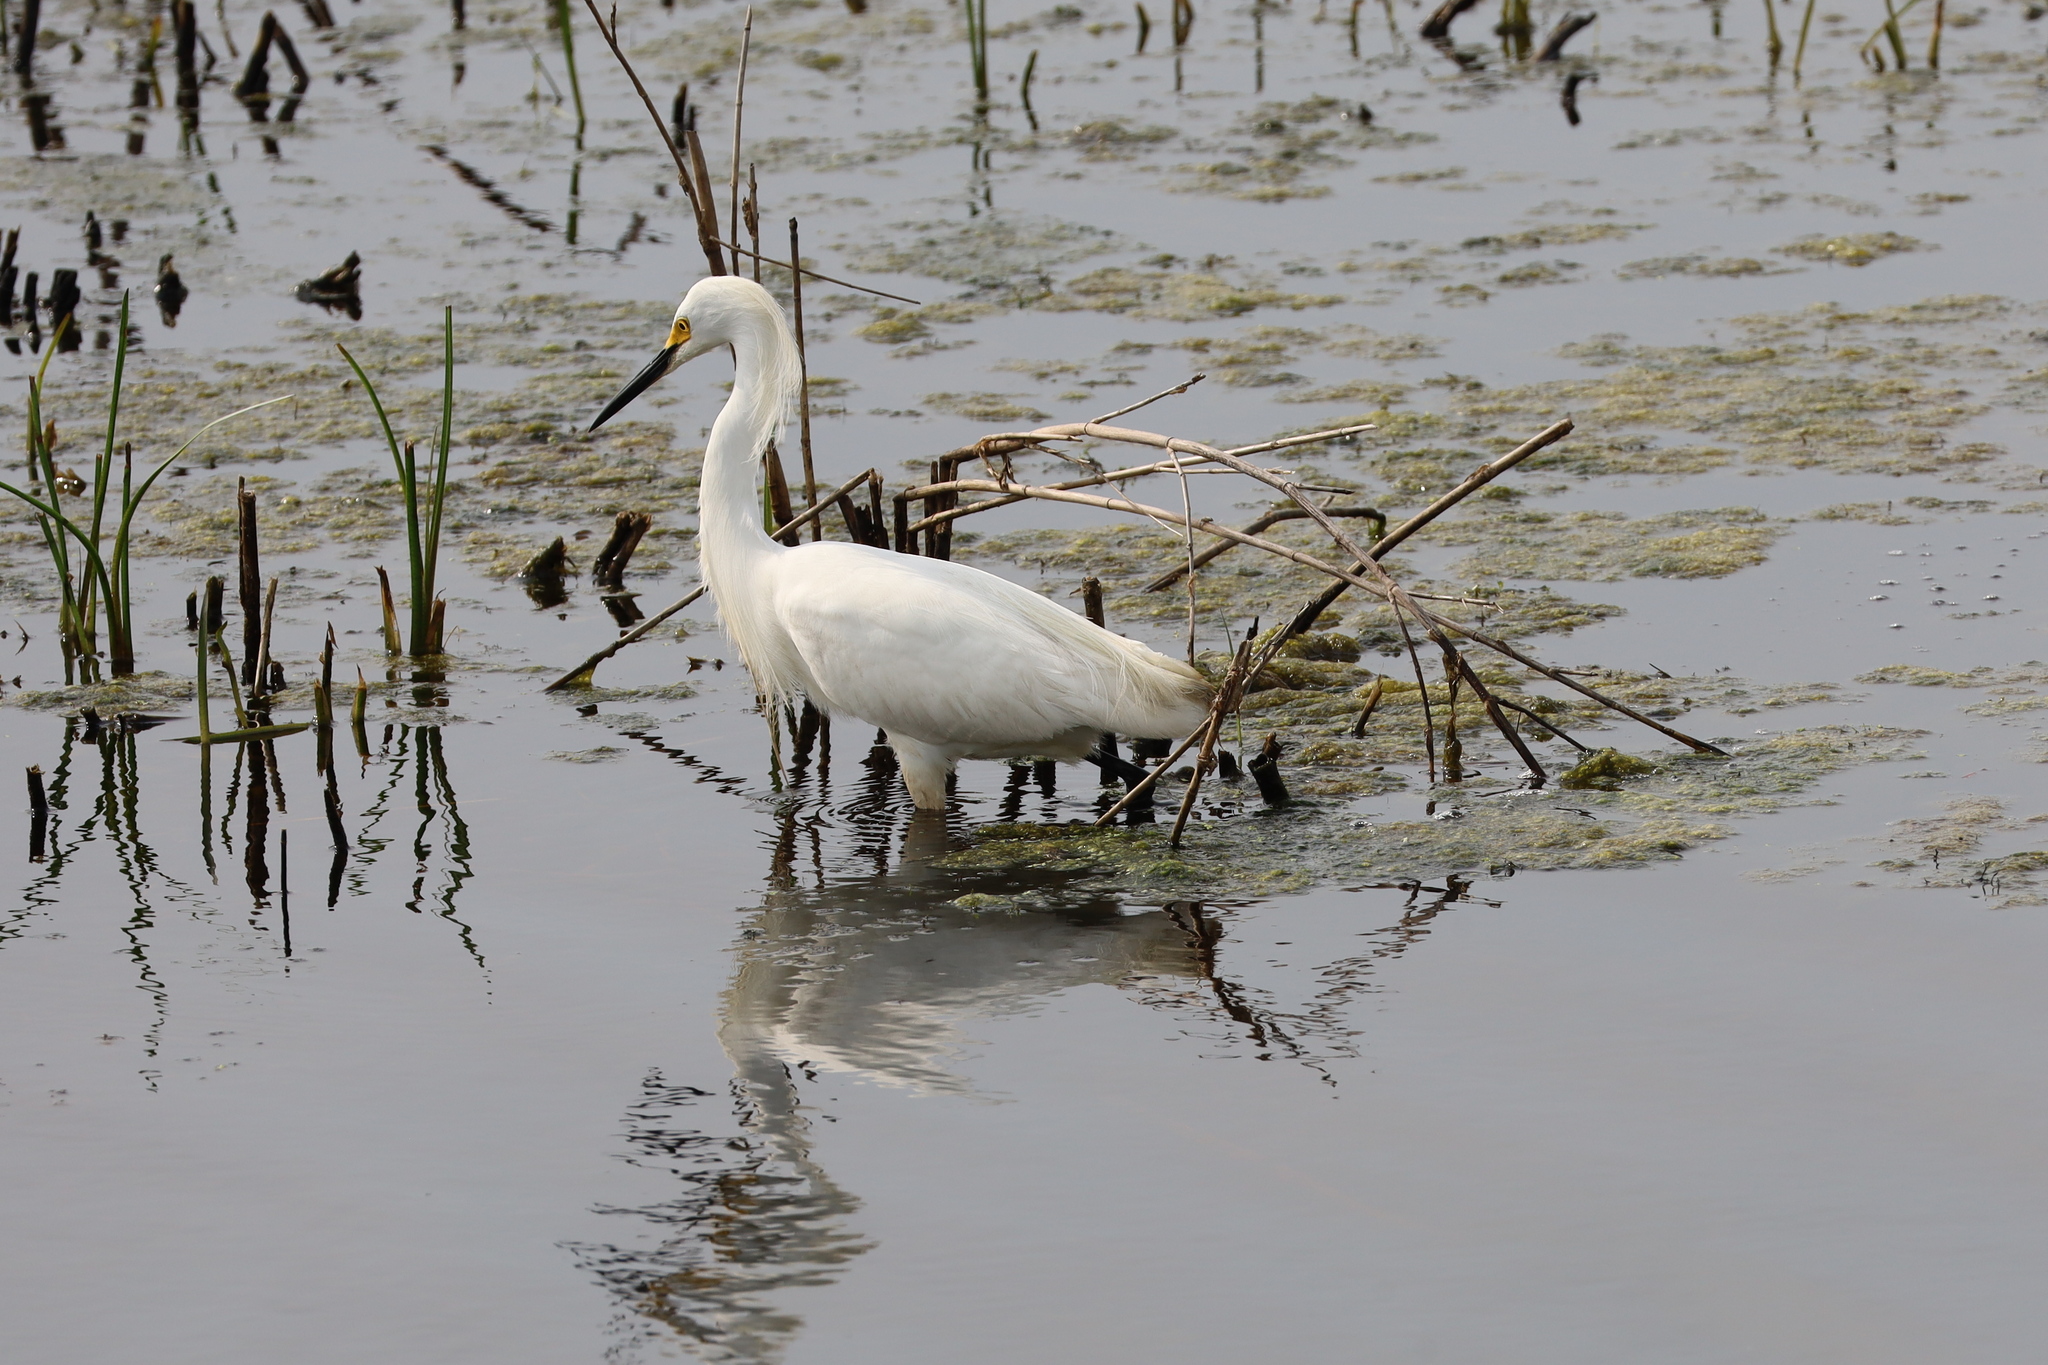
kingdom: Animalia
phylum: Chordata
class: Aves
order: Pelecaniformes
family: Ardeidae
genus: Egretta
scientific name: Egretta thula
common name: Snowy egret
